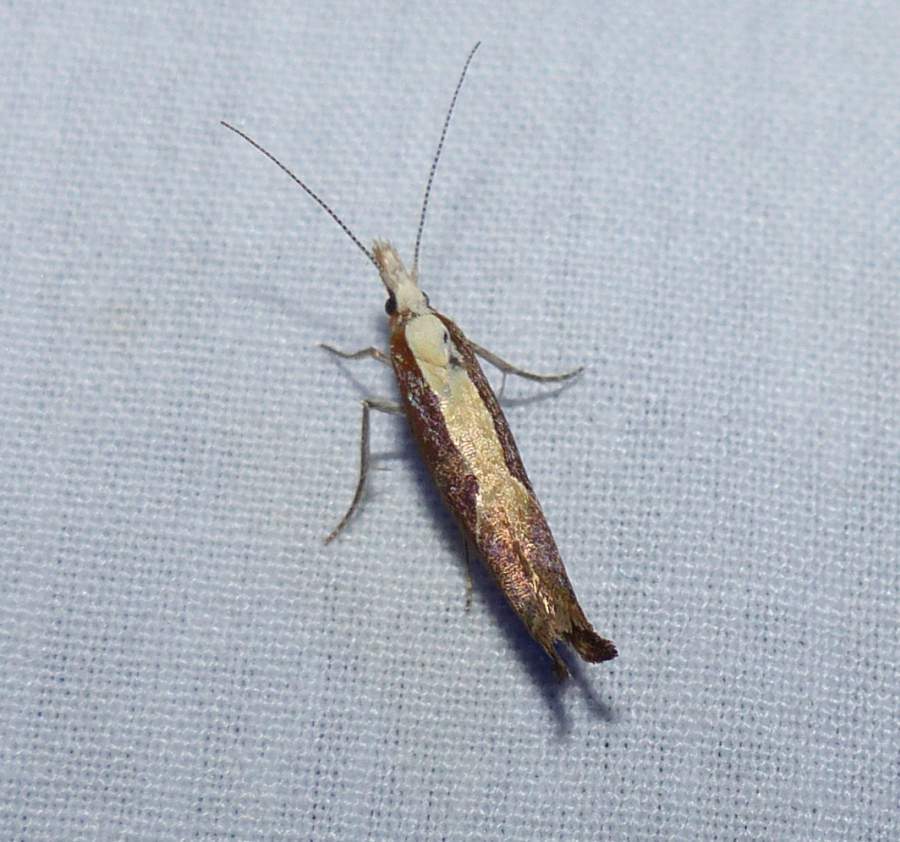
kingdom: Animalia
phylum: Arthropoda
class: Insecta
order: Lepidoptera
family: Ypsolophidae
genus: Ypsolopha
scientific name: Ypsolopha dentella
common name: Honeysuckle moth
